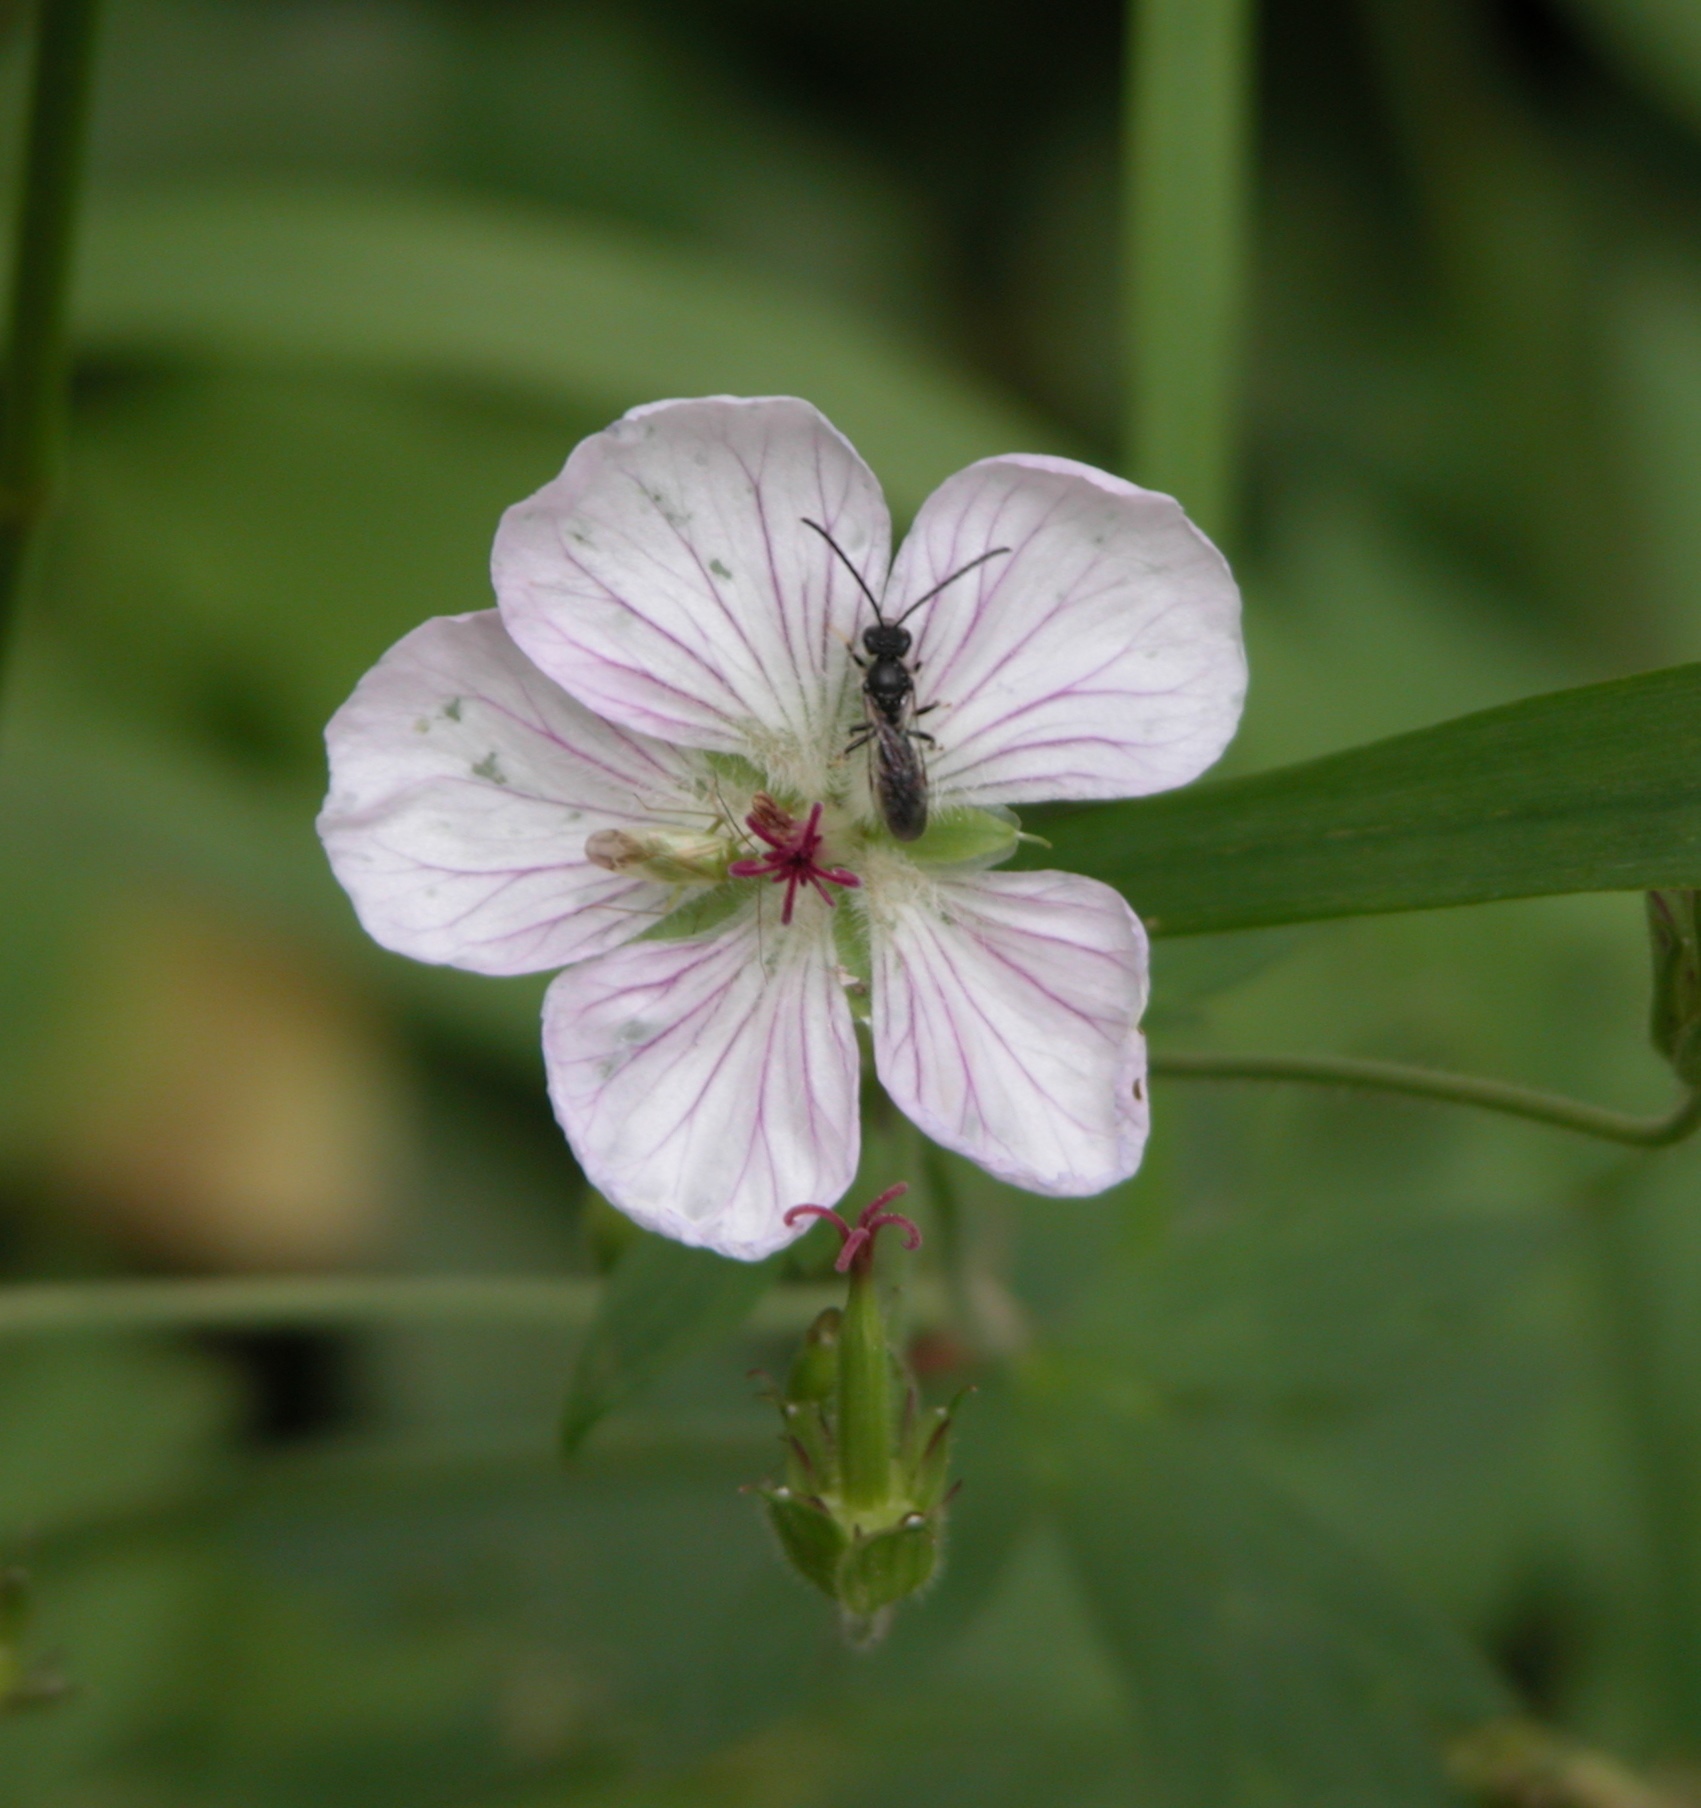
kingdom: Plantae
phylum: Tracheophyta
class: Magnoliopsida
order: Geraniales
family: Geraniaceae
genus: Geranium
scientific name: Geranium richardsonii
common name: Richardson's crane's-bill
